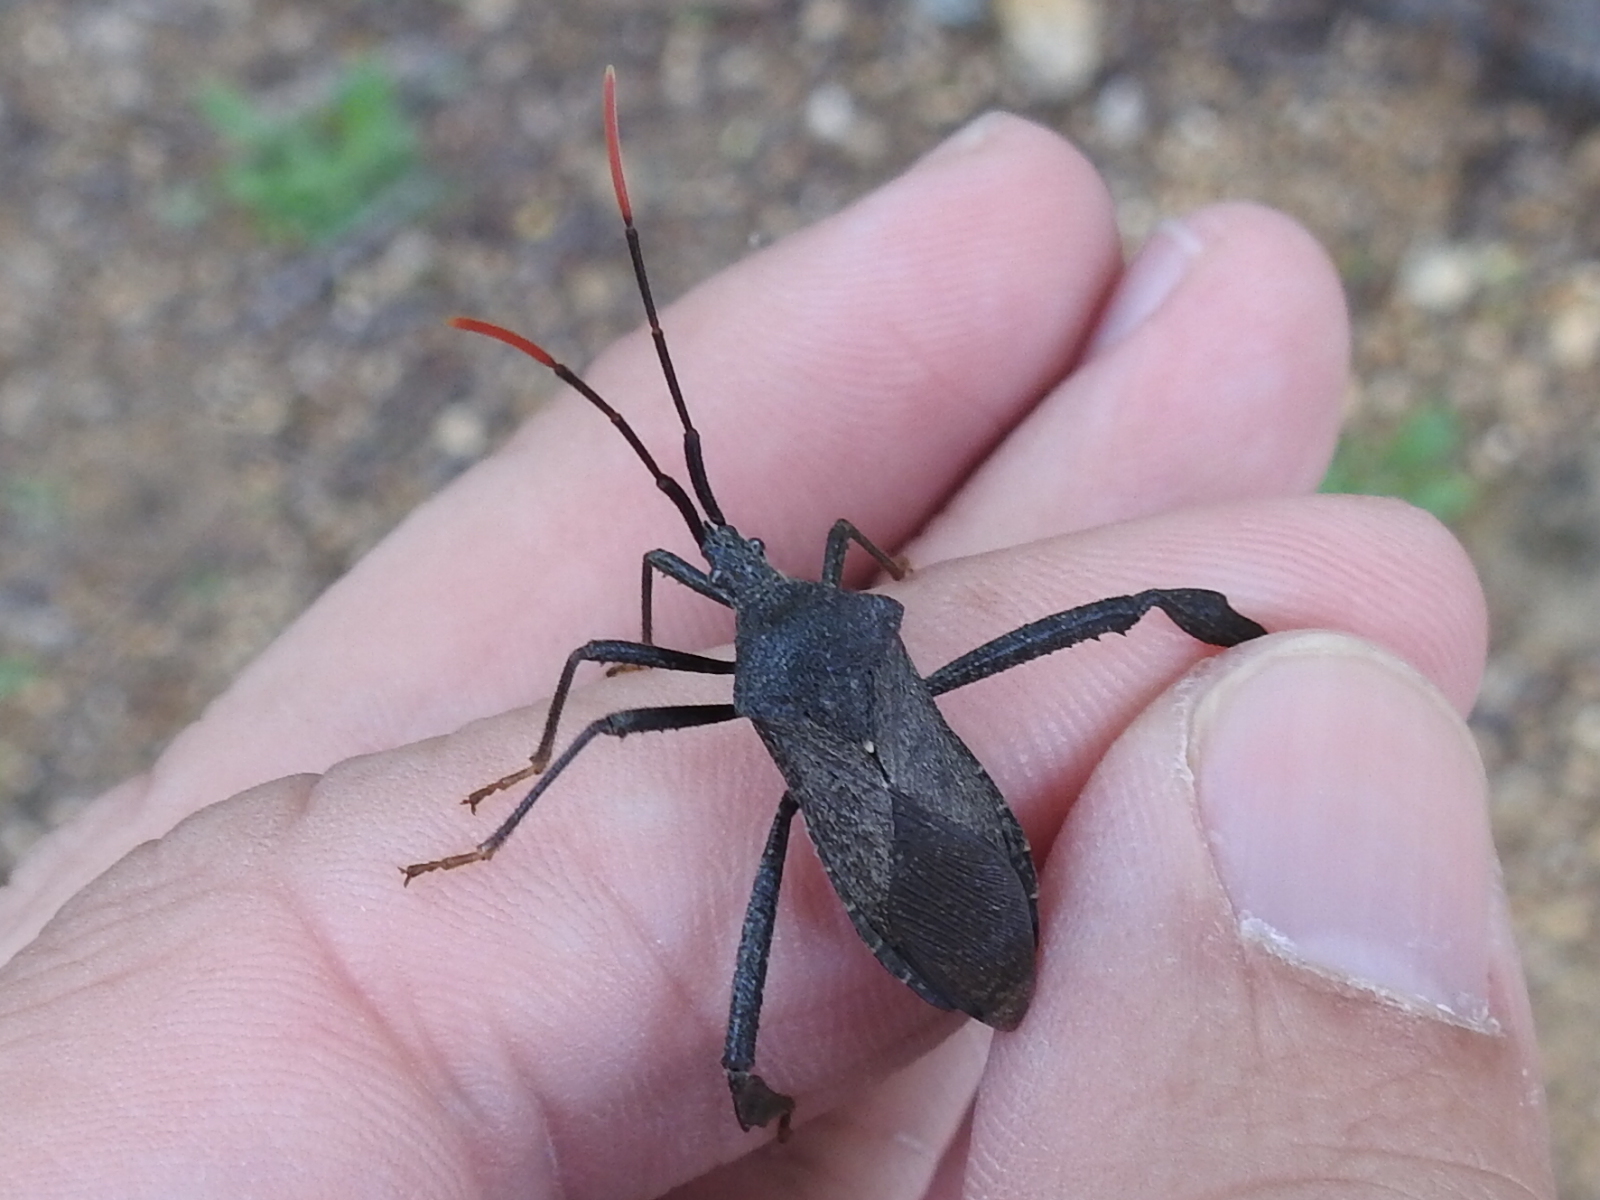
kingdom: Animalia
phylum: Arthropoda
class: Insecta
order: Hemiptera
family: Coreidae
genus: Acanthocephala
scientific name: Acanthocephala terminalis
